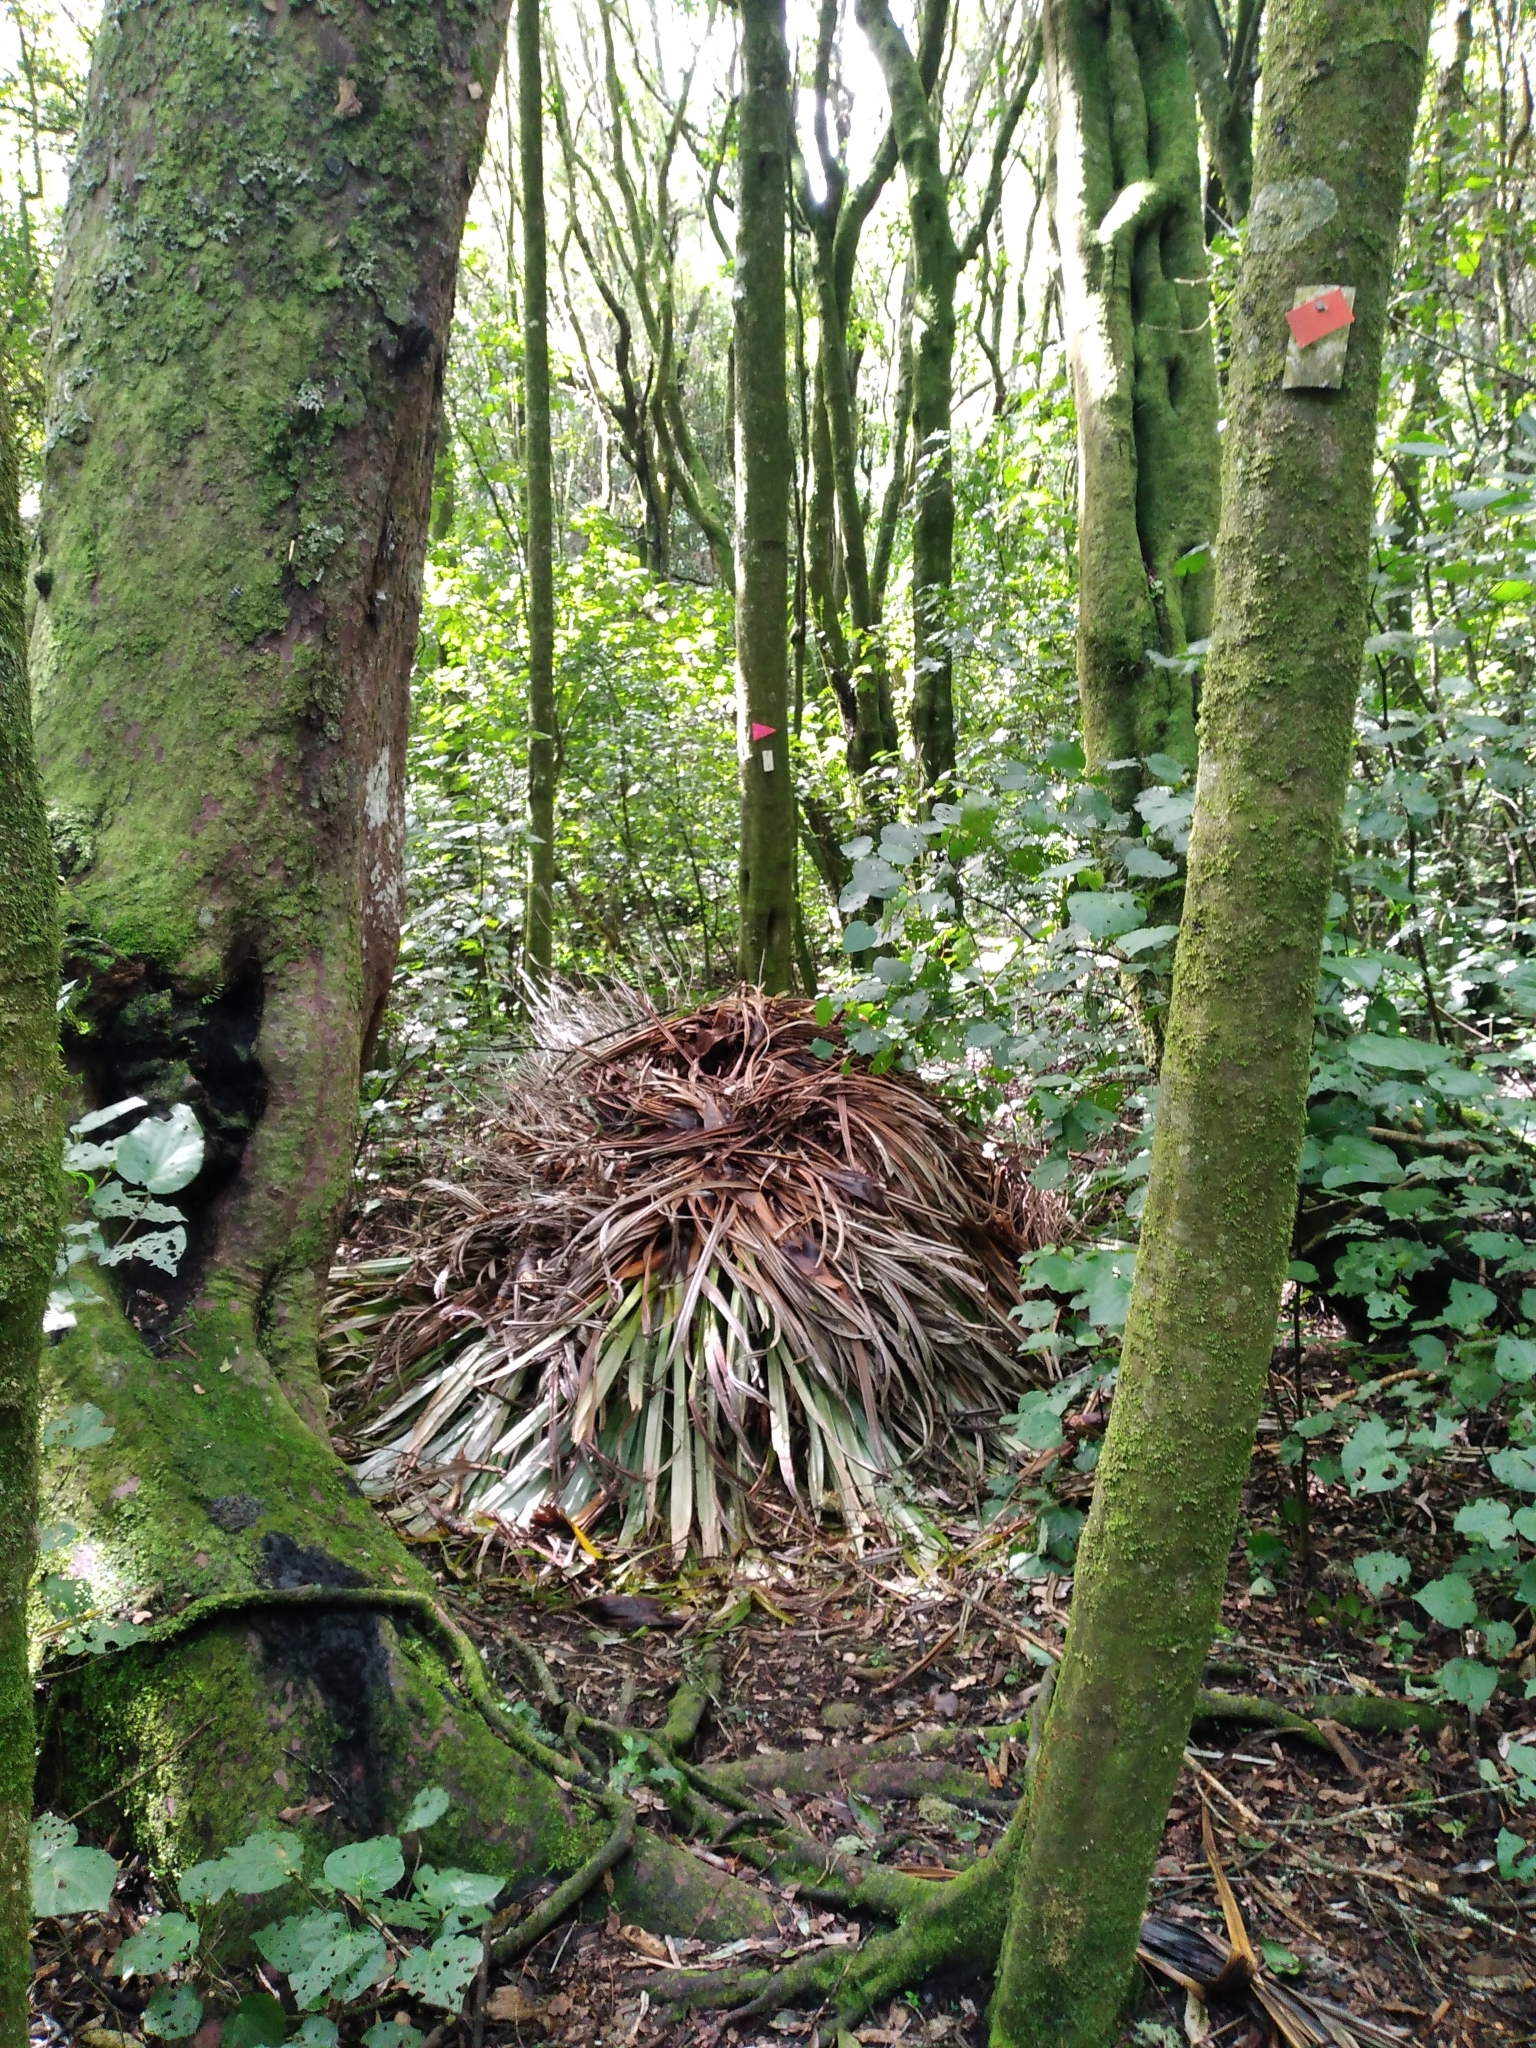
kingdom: Plantae
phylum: Tracheophyta
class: Liliopsida
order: Asparagales
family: Asteliaceae
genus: Astelia
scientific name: Astelia hastata
